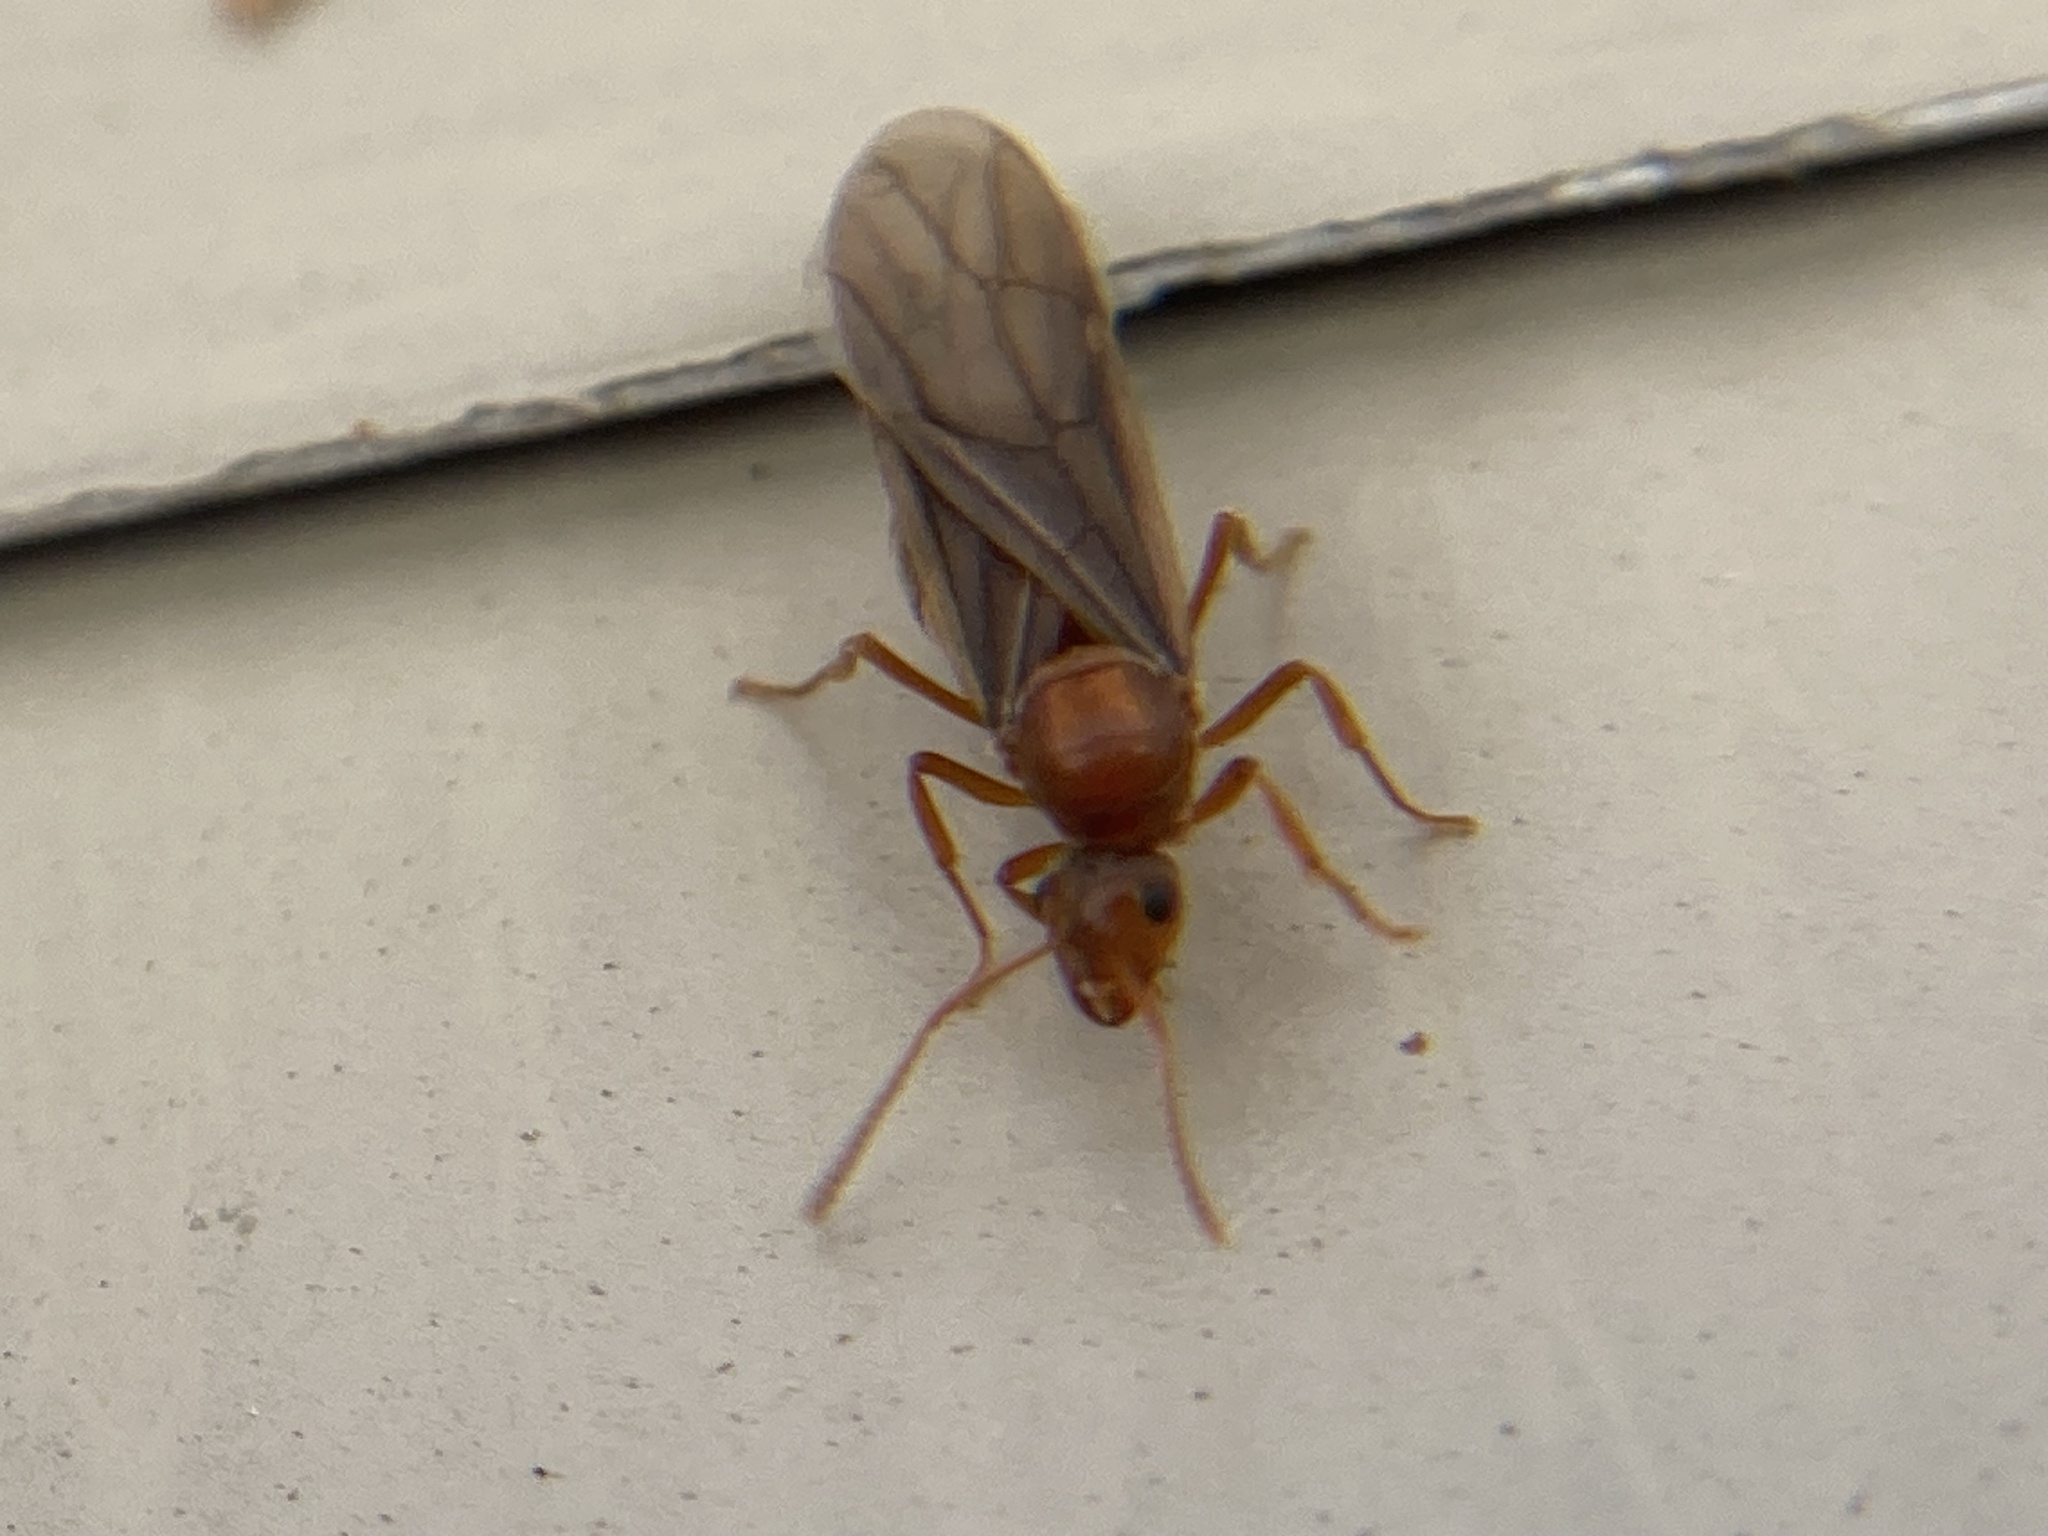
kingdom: Animalia
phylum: Arthropoda
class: Insecta
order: Hymenoptera
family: Formicidae
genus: Prenolepis
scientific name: Prenolepis imparis
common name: Small honey ant
